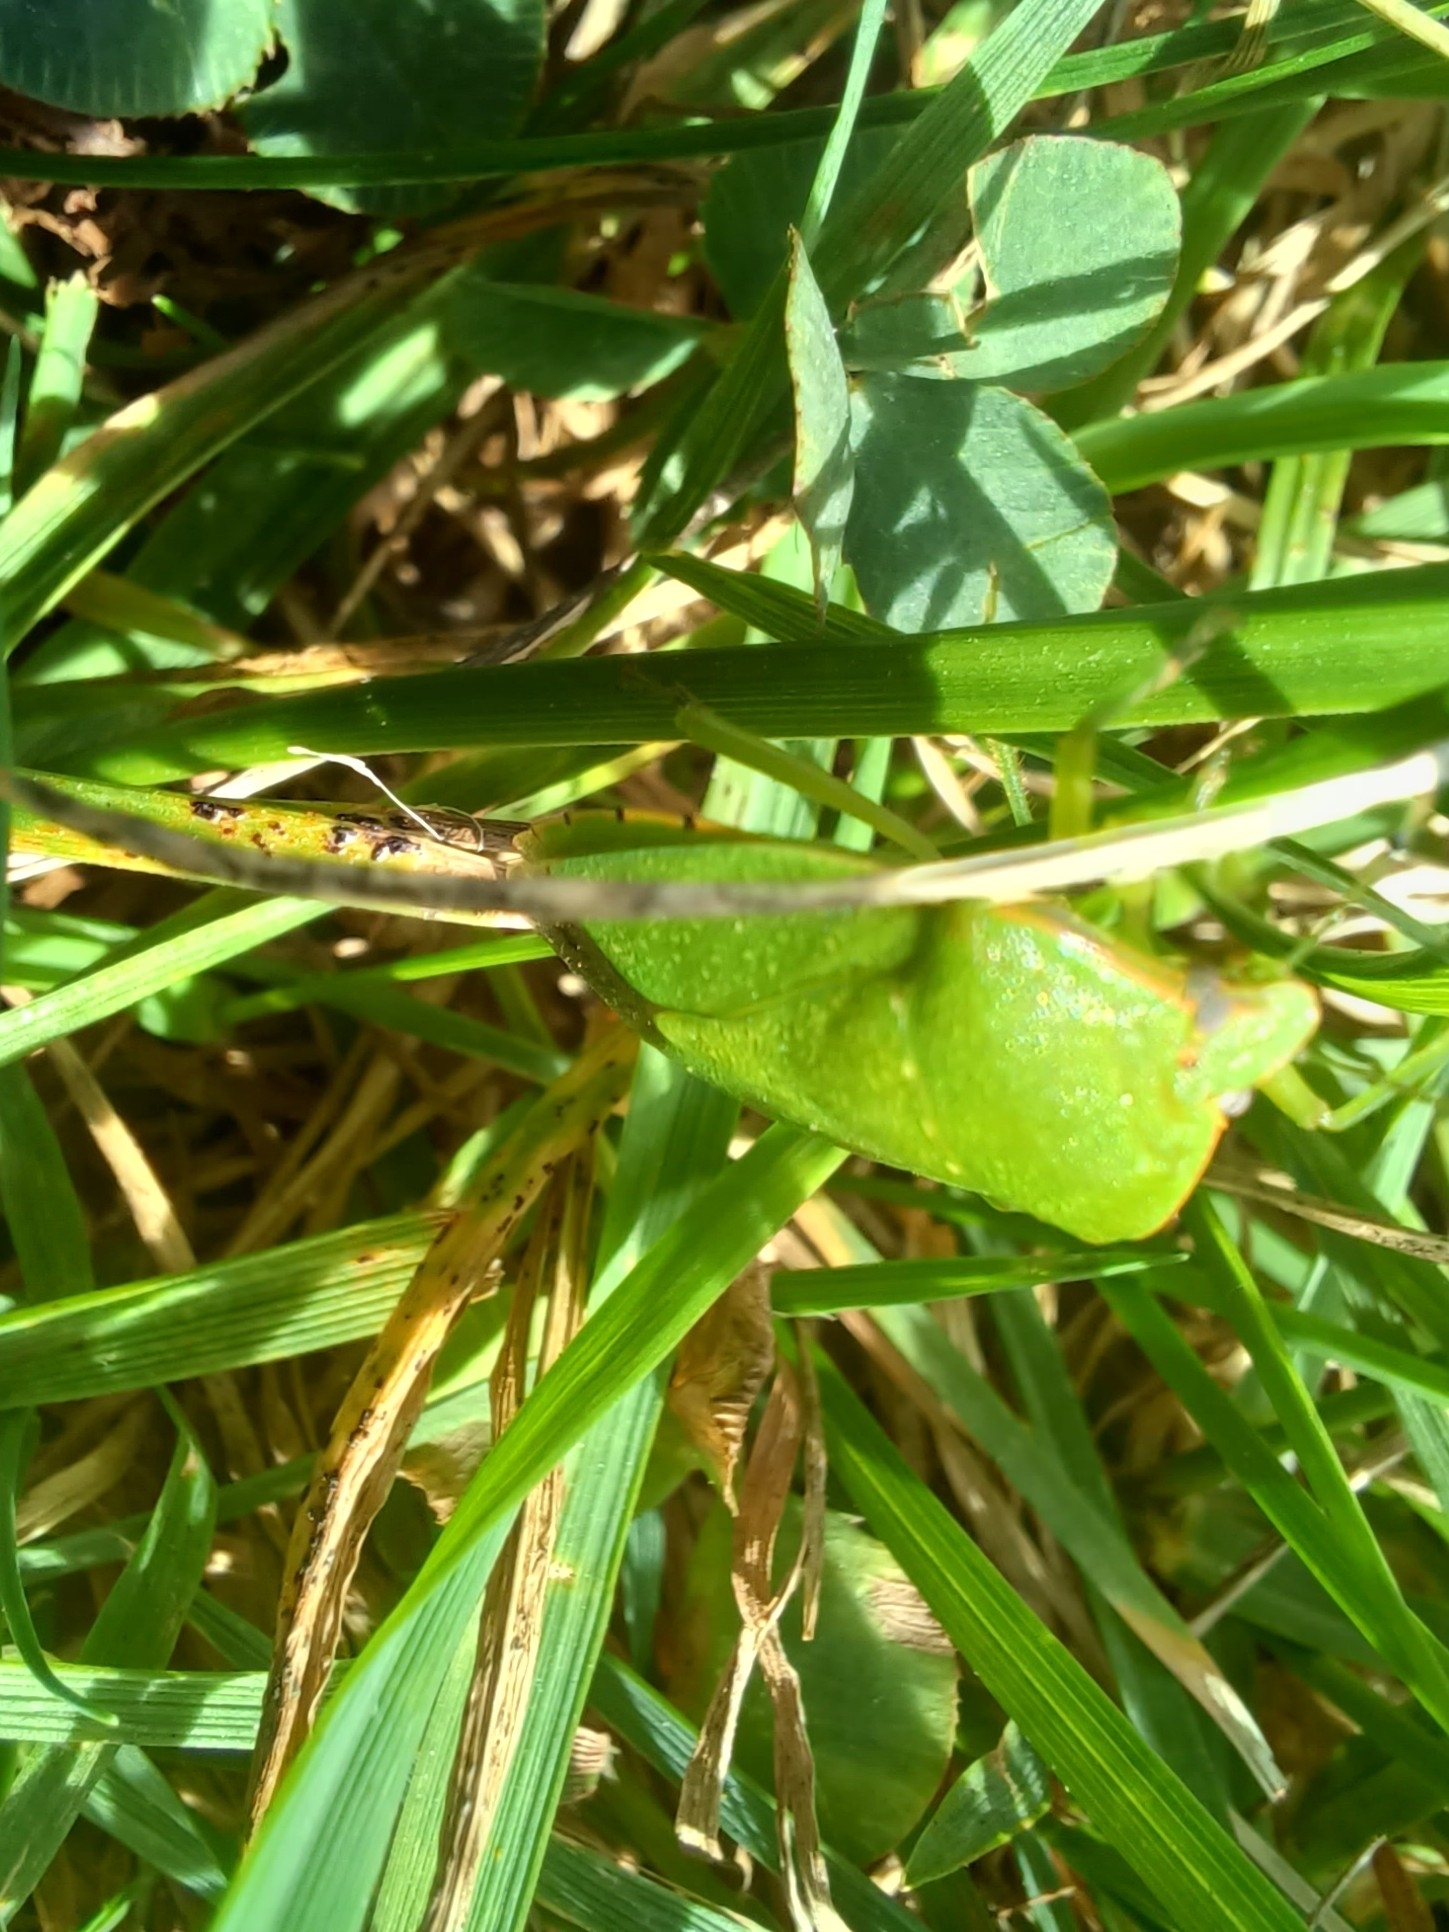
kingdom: Animalia
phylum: Arthropoda
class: Insecta
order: Hemiptera
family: Pentatomidae
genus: Chinavia
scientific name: Chinavia hilaris
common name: Green stink bug
